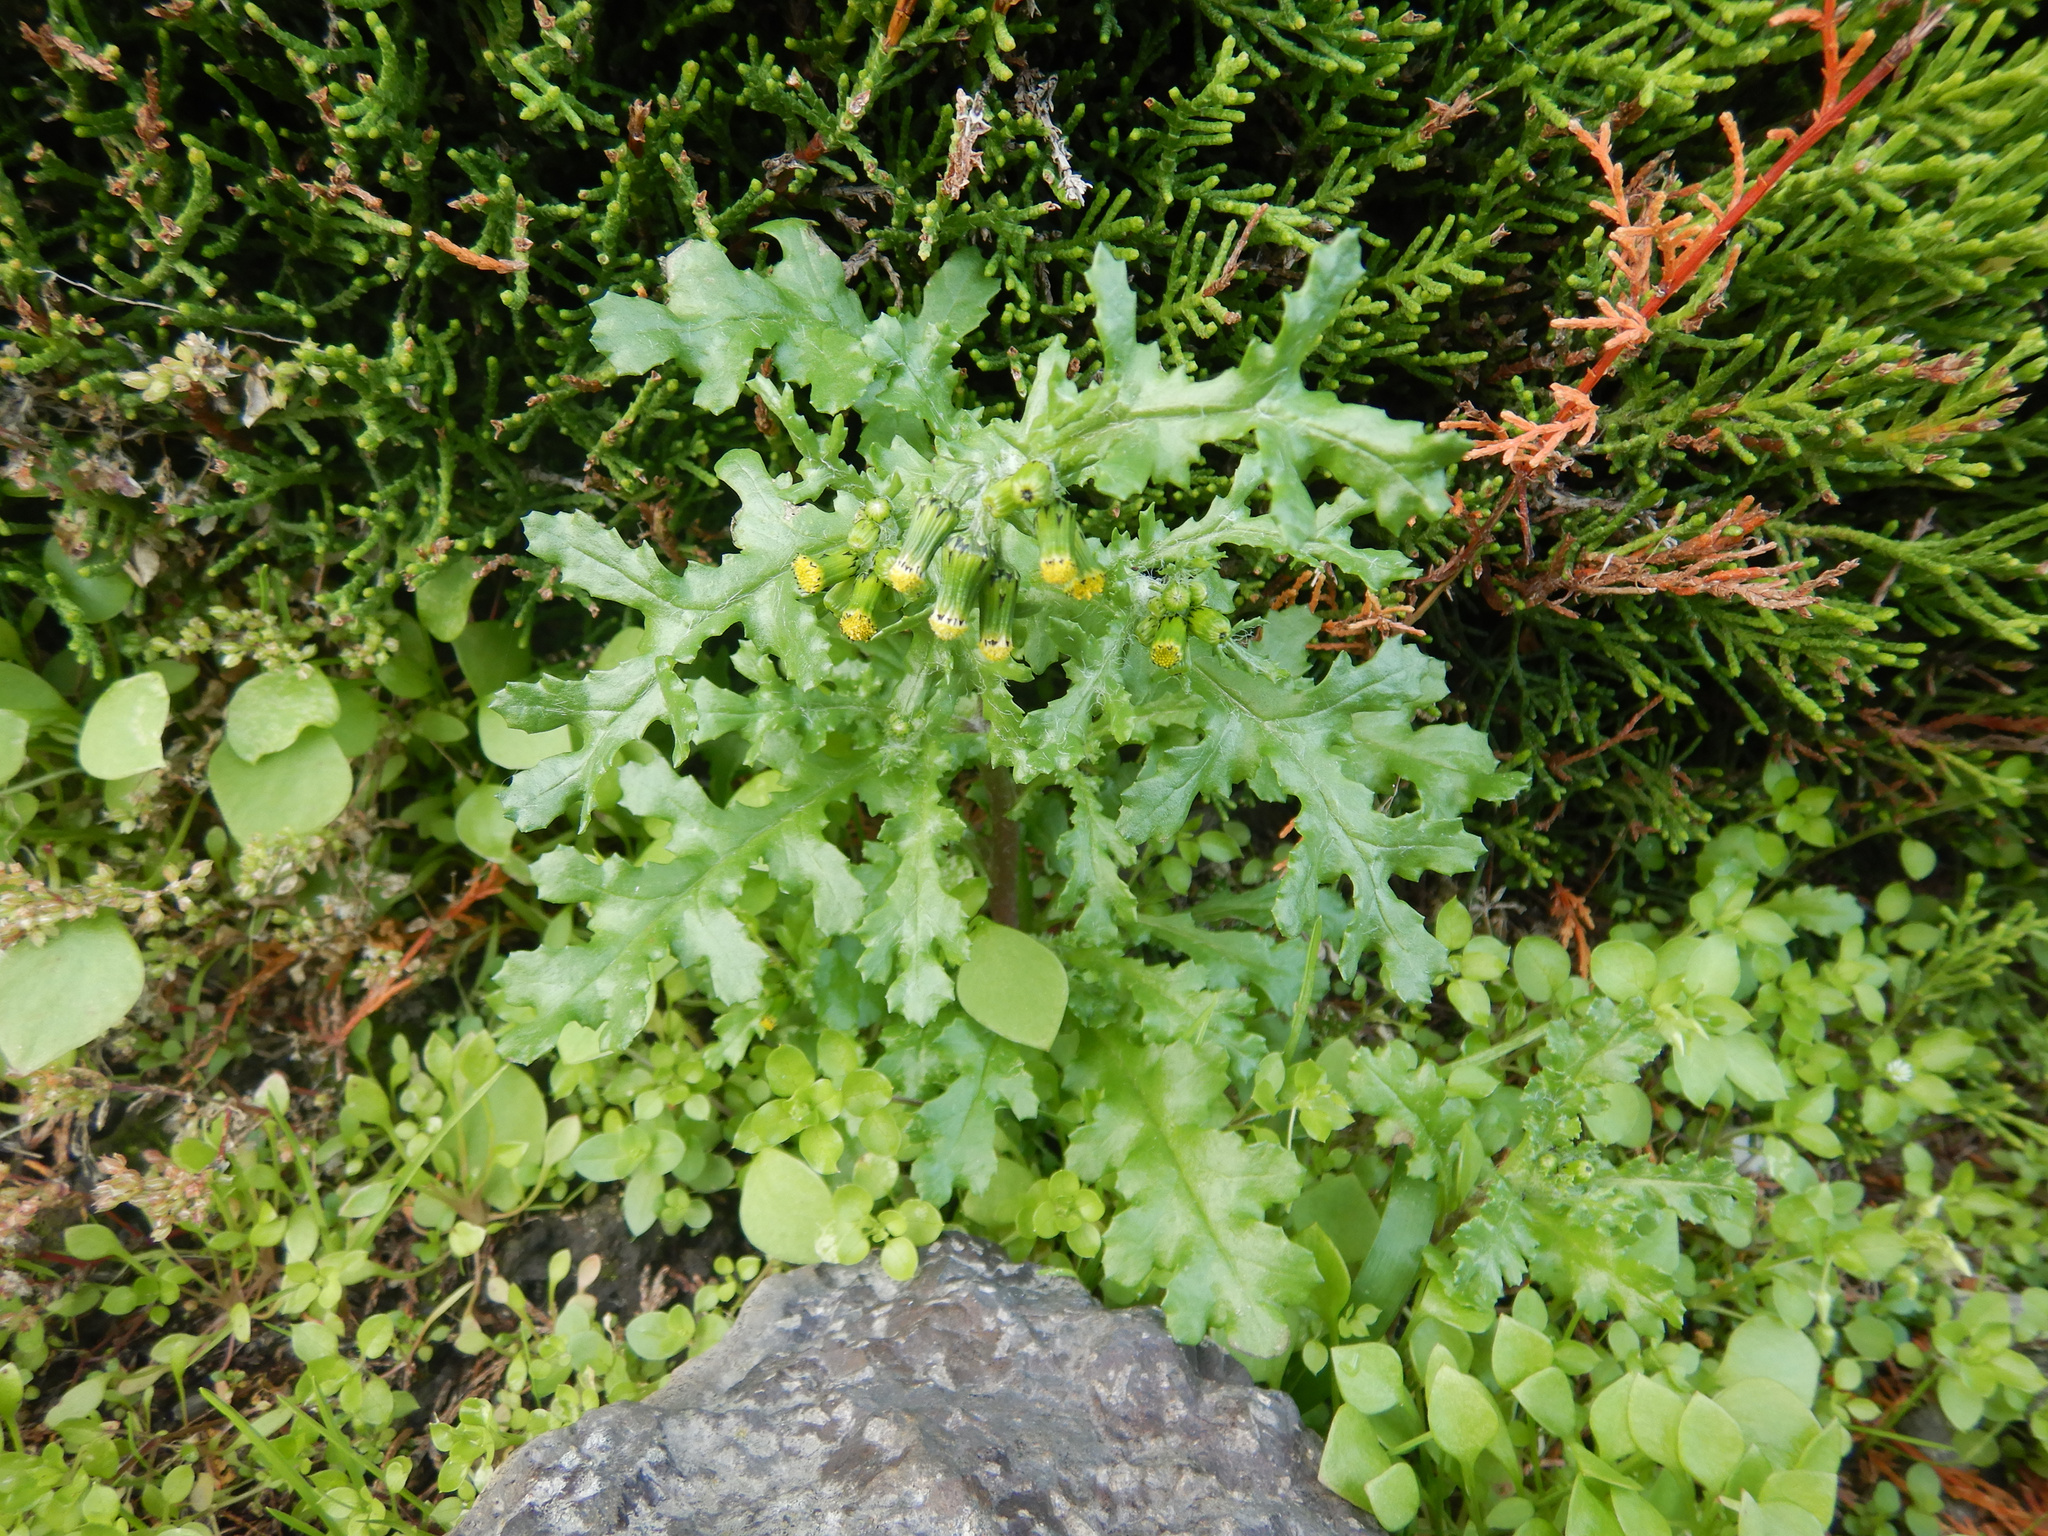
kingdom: Plantae
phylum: Tracheophyta
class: Magnoliopsida
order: Asterales
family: Asteraceae
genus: Senecio
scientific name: Senecio vulgaris
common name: Old-man-in-the-spring
